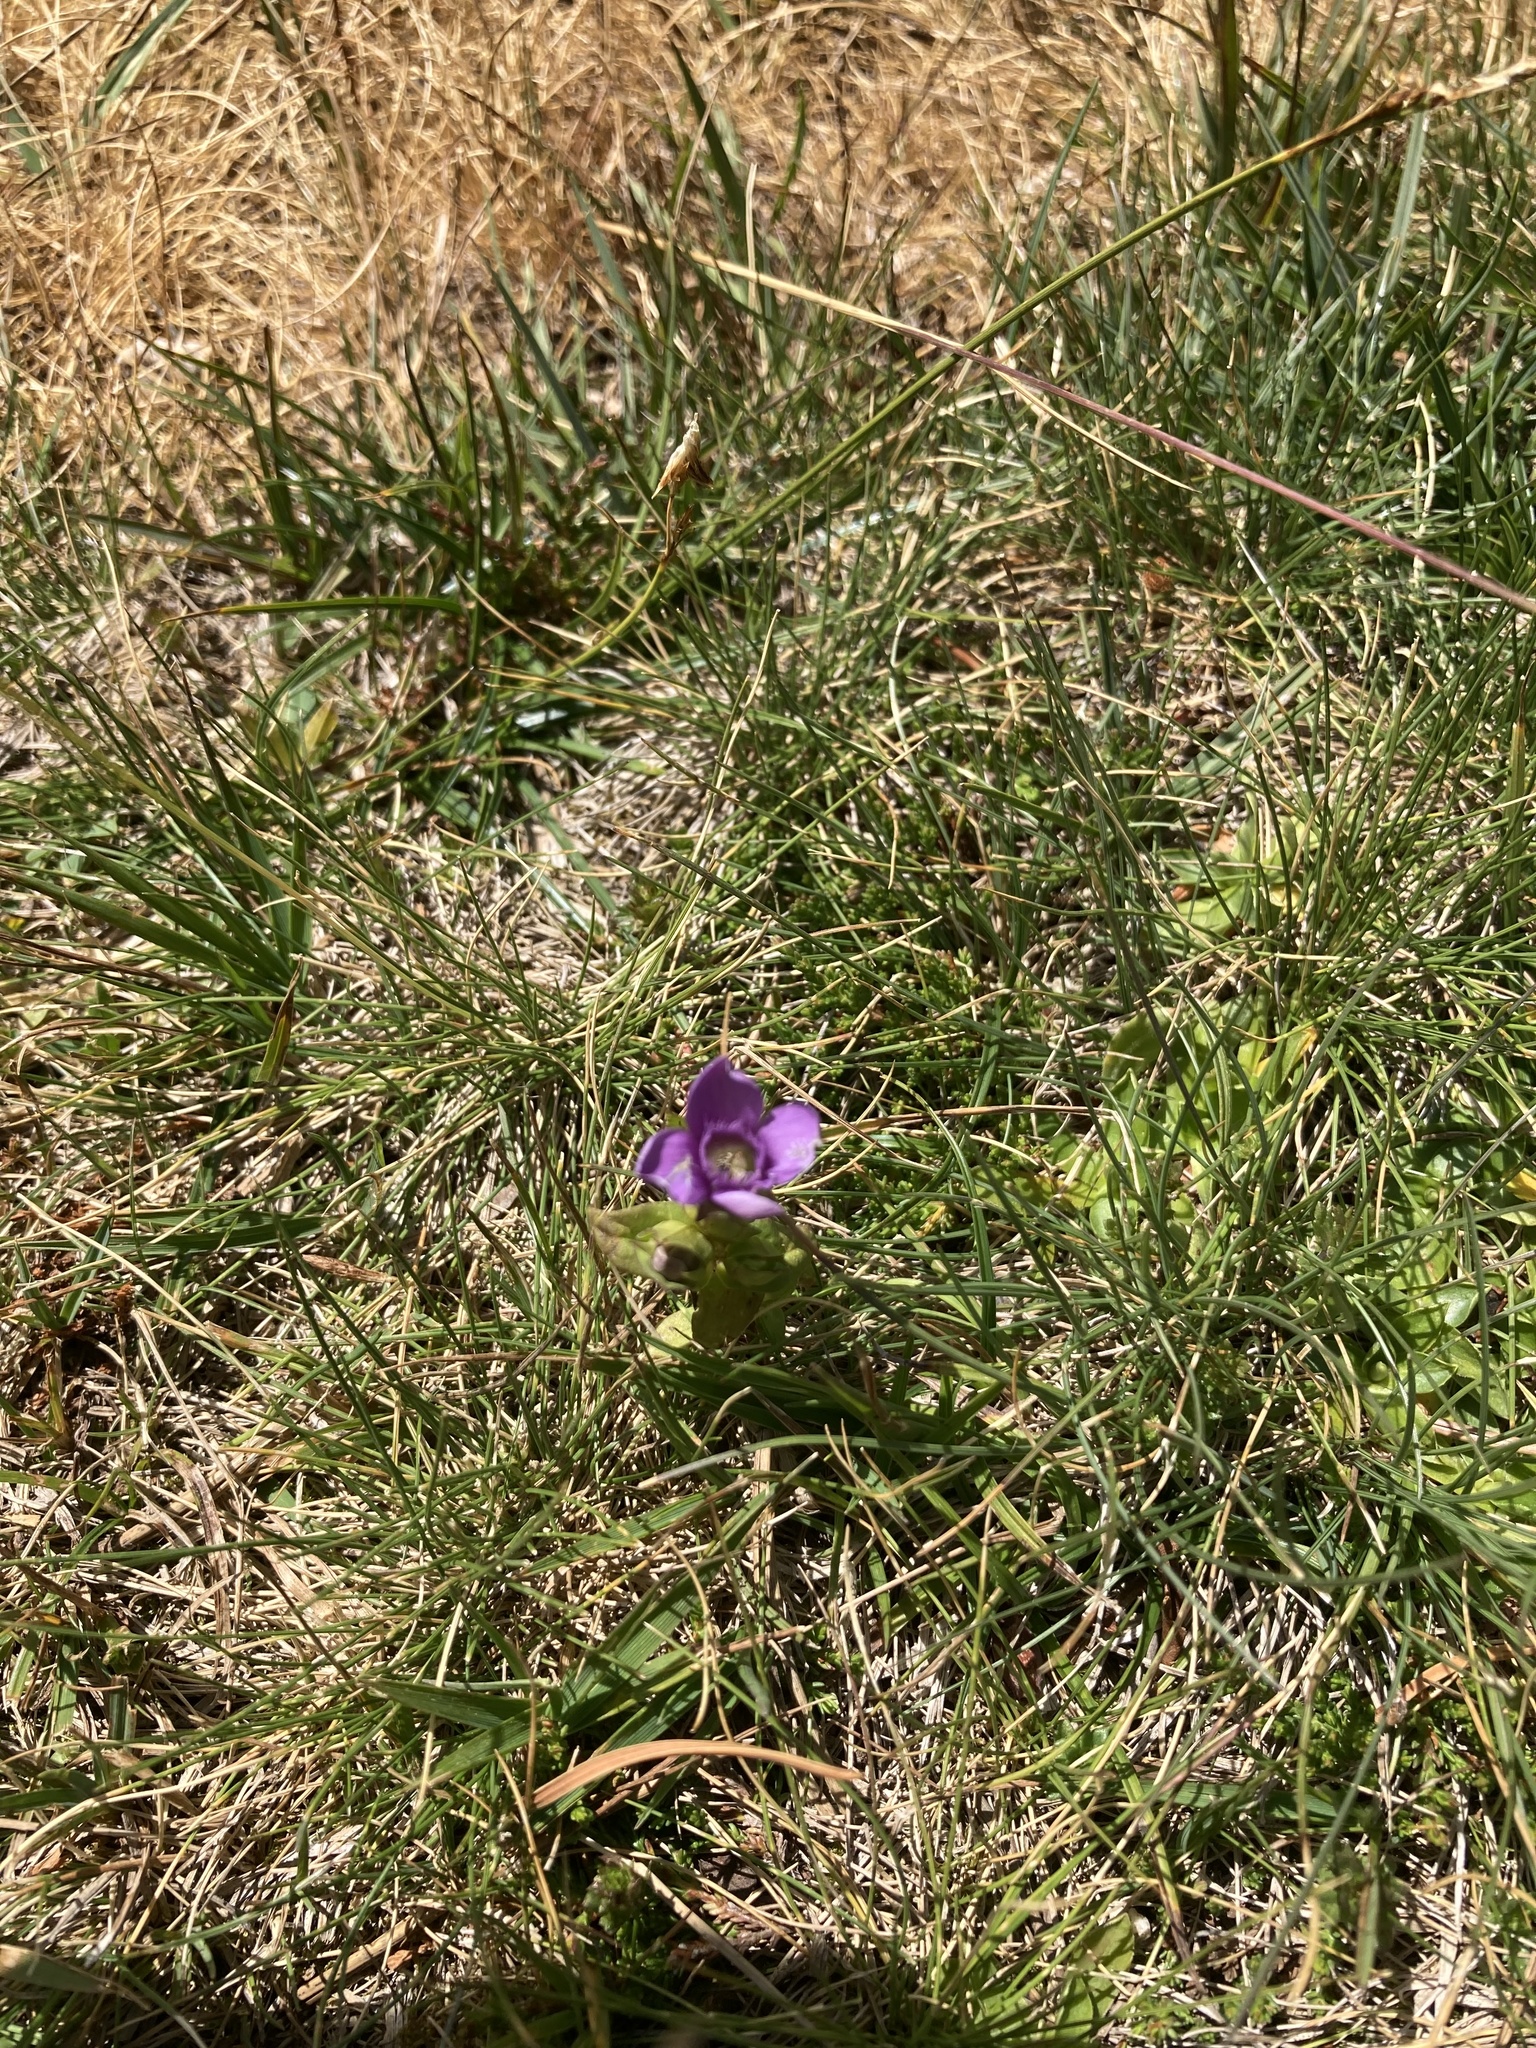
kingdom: Plantae
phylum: Tracheophyta
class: Magnoliopsida
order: Gentianales
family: Gentianaceae
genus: Gentianella
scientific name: Gentianella campestris
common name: Field gentian
